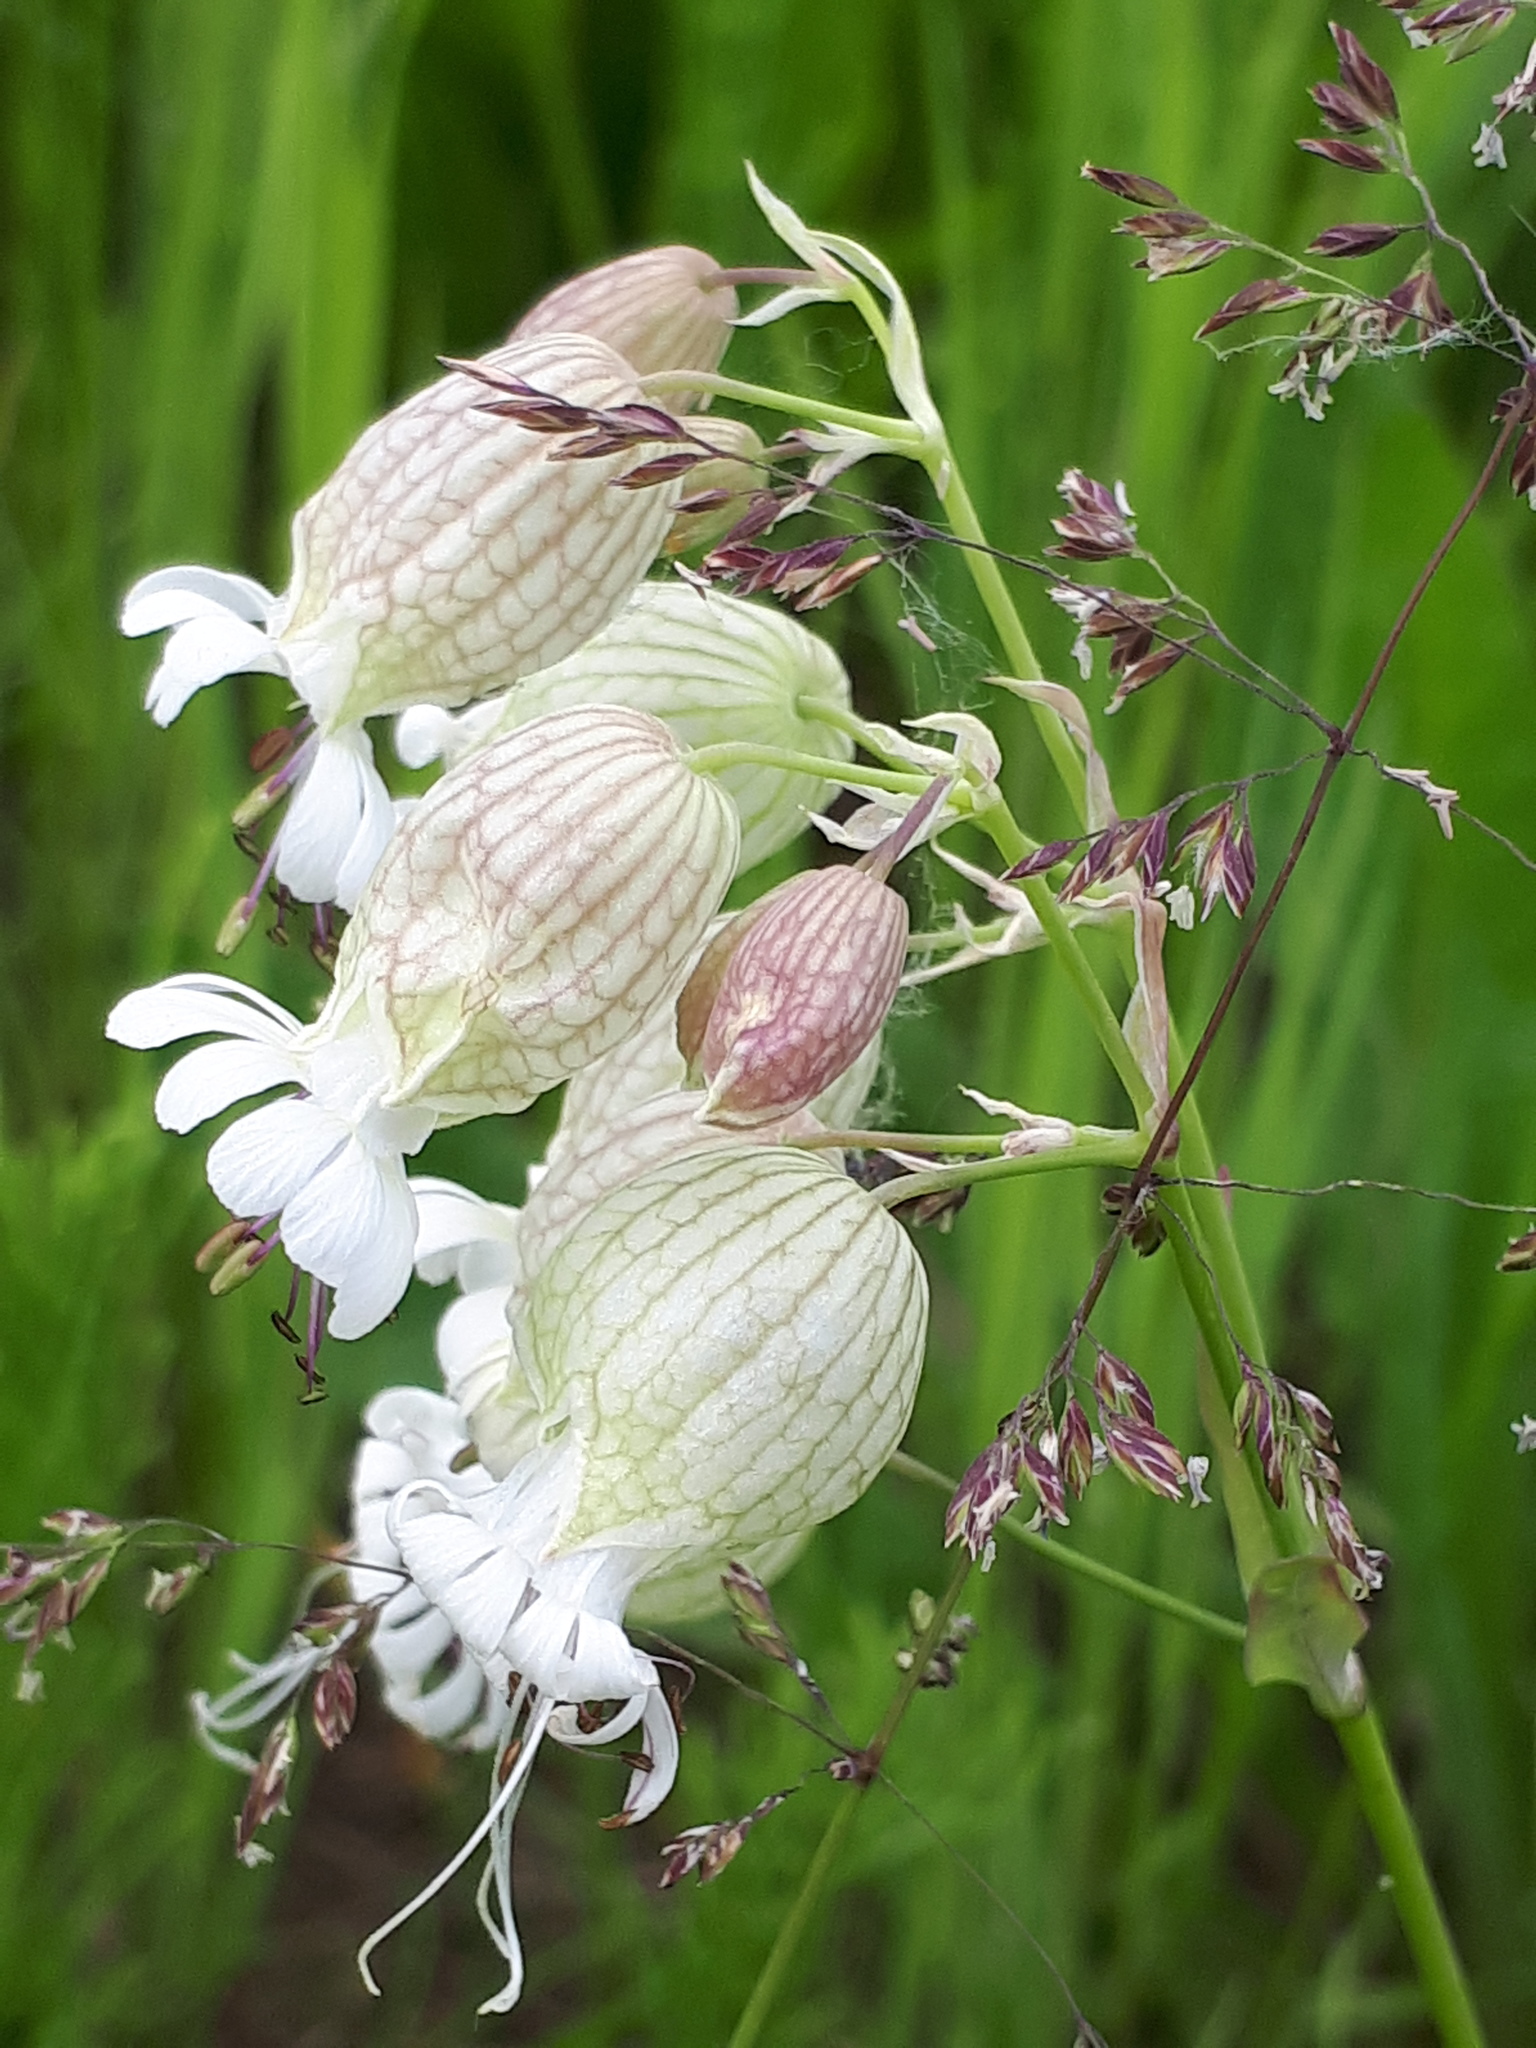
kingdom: Plantae
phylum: Tracheophyta
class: Magnoliopsida
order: Caryophyllales
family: Caryophyllaceae
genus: Silene
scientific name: Silene vulgaris
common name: Bladder campion
